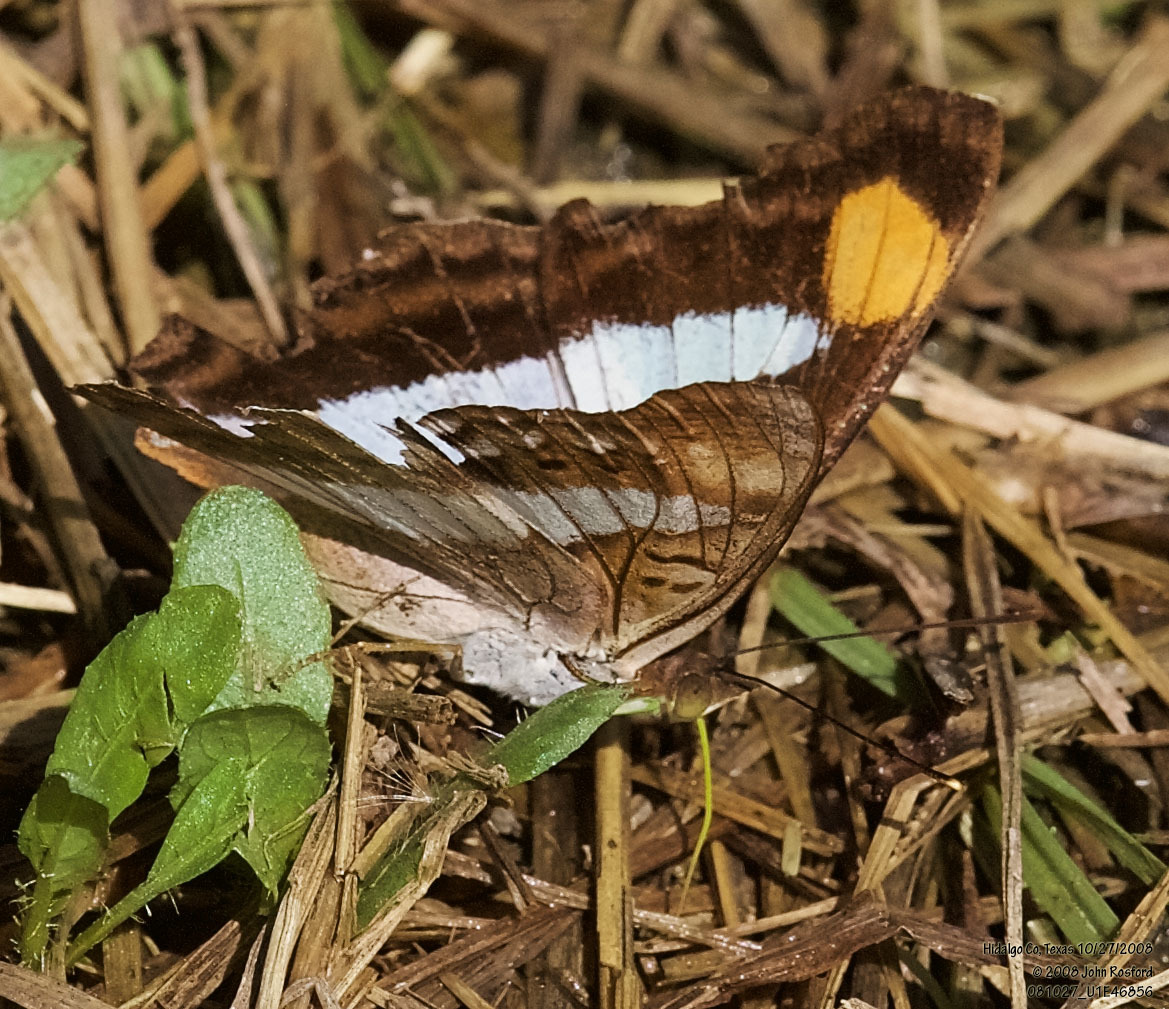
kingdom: Animalia
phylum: Arthropoda
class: Insecta
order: Lepidoptera
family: Nymphalidae
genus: Doxocopa
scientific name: Doxocopa pavon
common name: Pavon emperor
